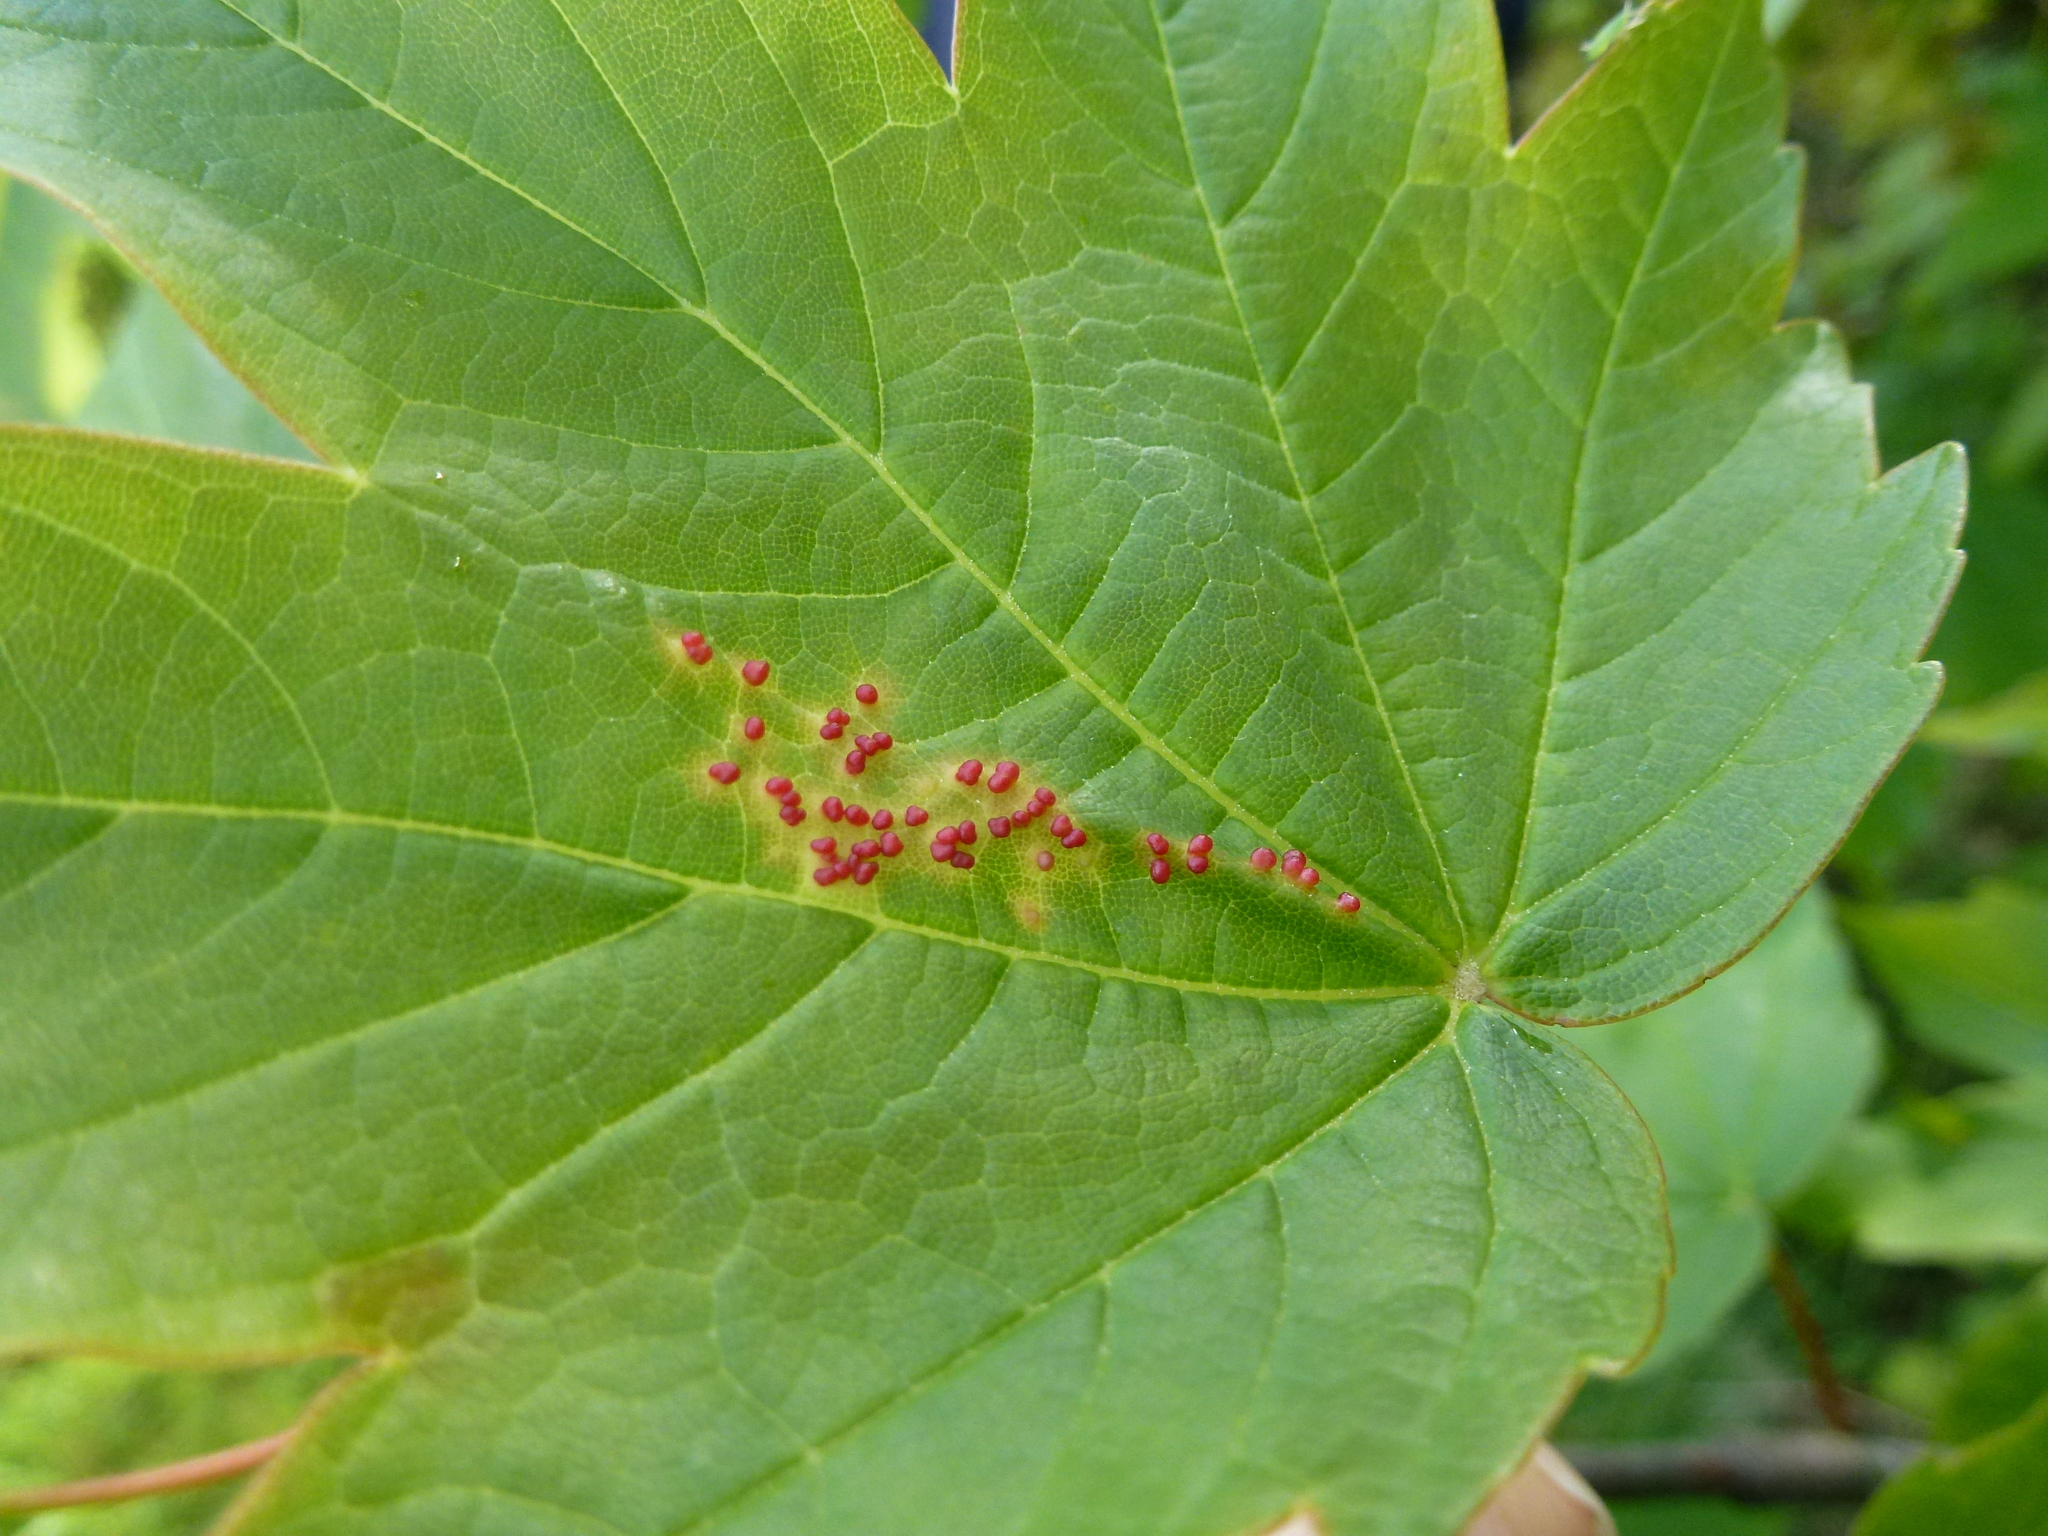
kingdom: Animalia
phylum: Arthropoda
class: Arachnida
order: Trombidiformes
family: Eriophyidae
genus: Aceria
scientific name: Aceria cephaloneus
